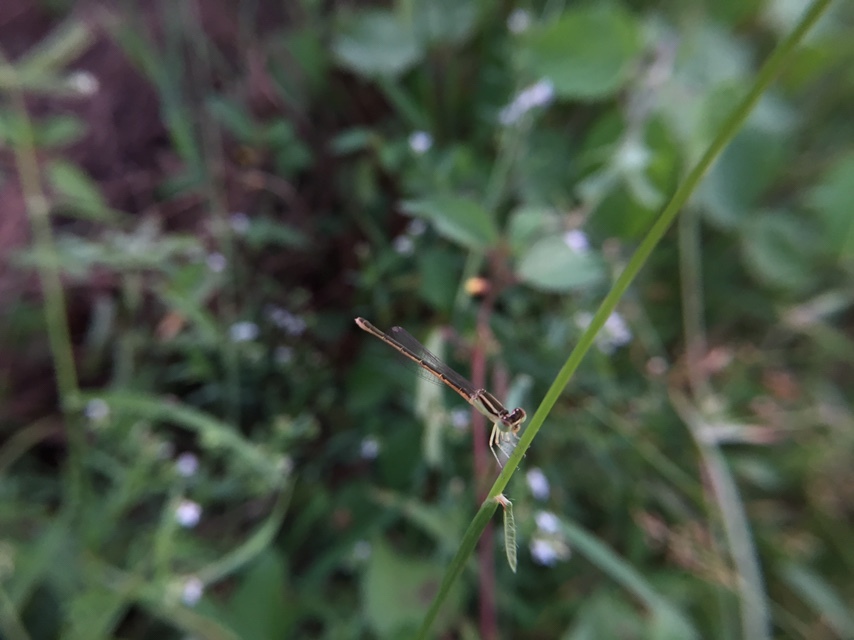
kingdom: Animalia
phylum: Arthropoda
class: Insecta
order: Odonata
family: Coenagrionidae
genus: Ischnura
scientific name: Ischnura rubilio
